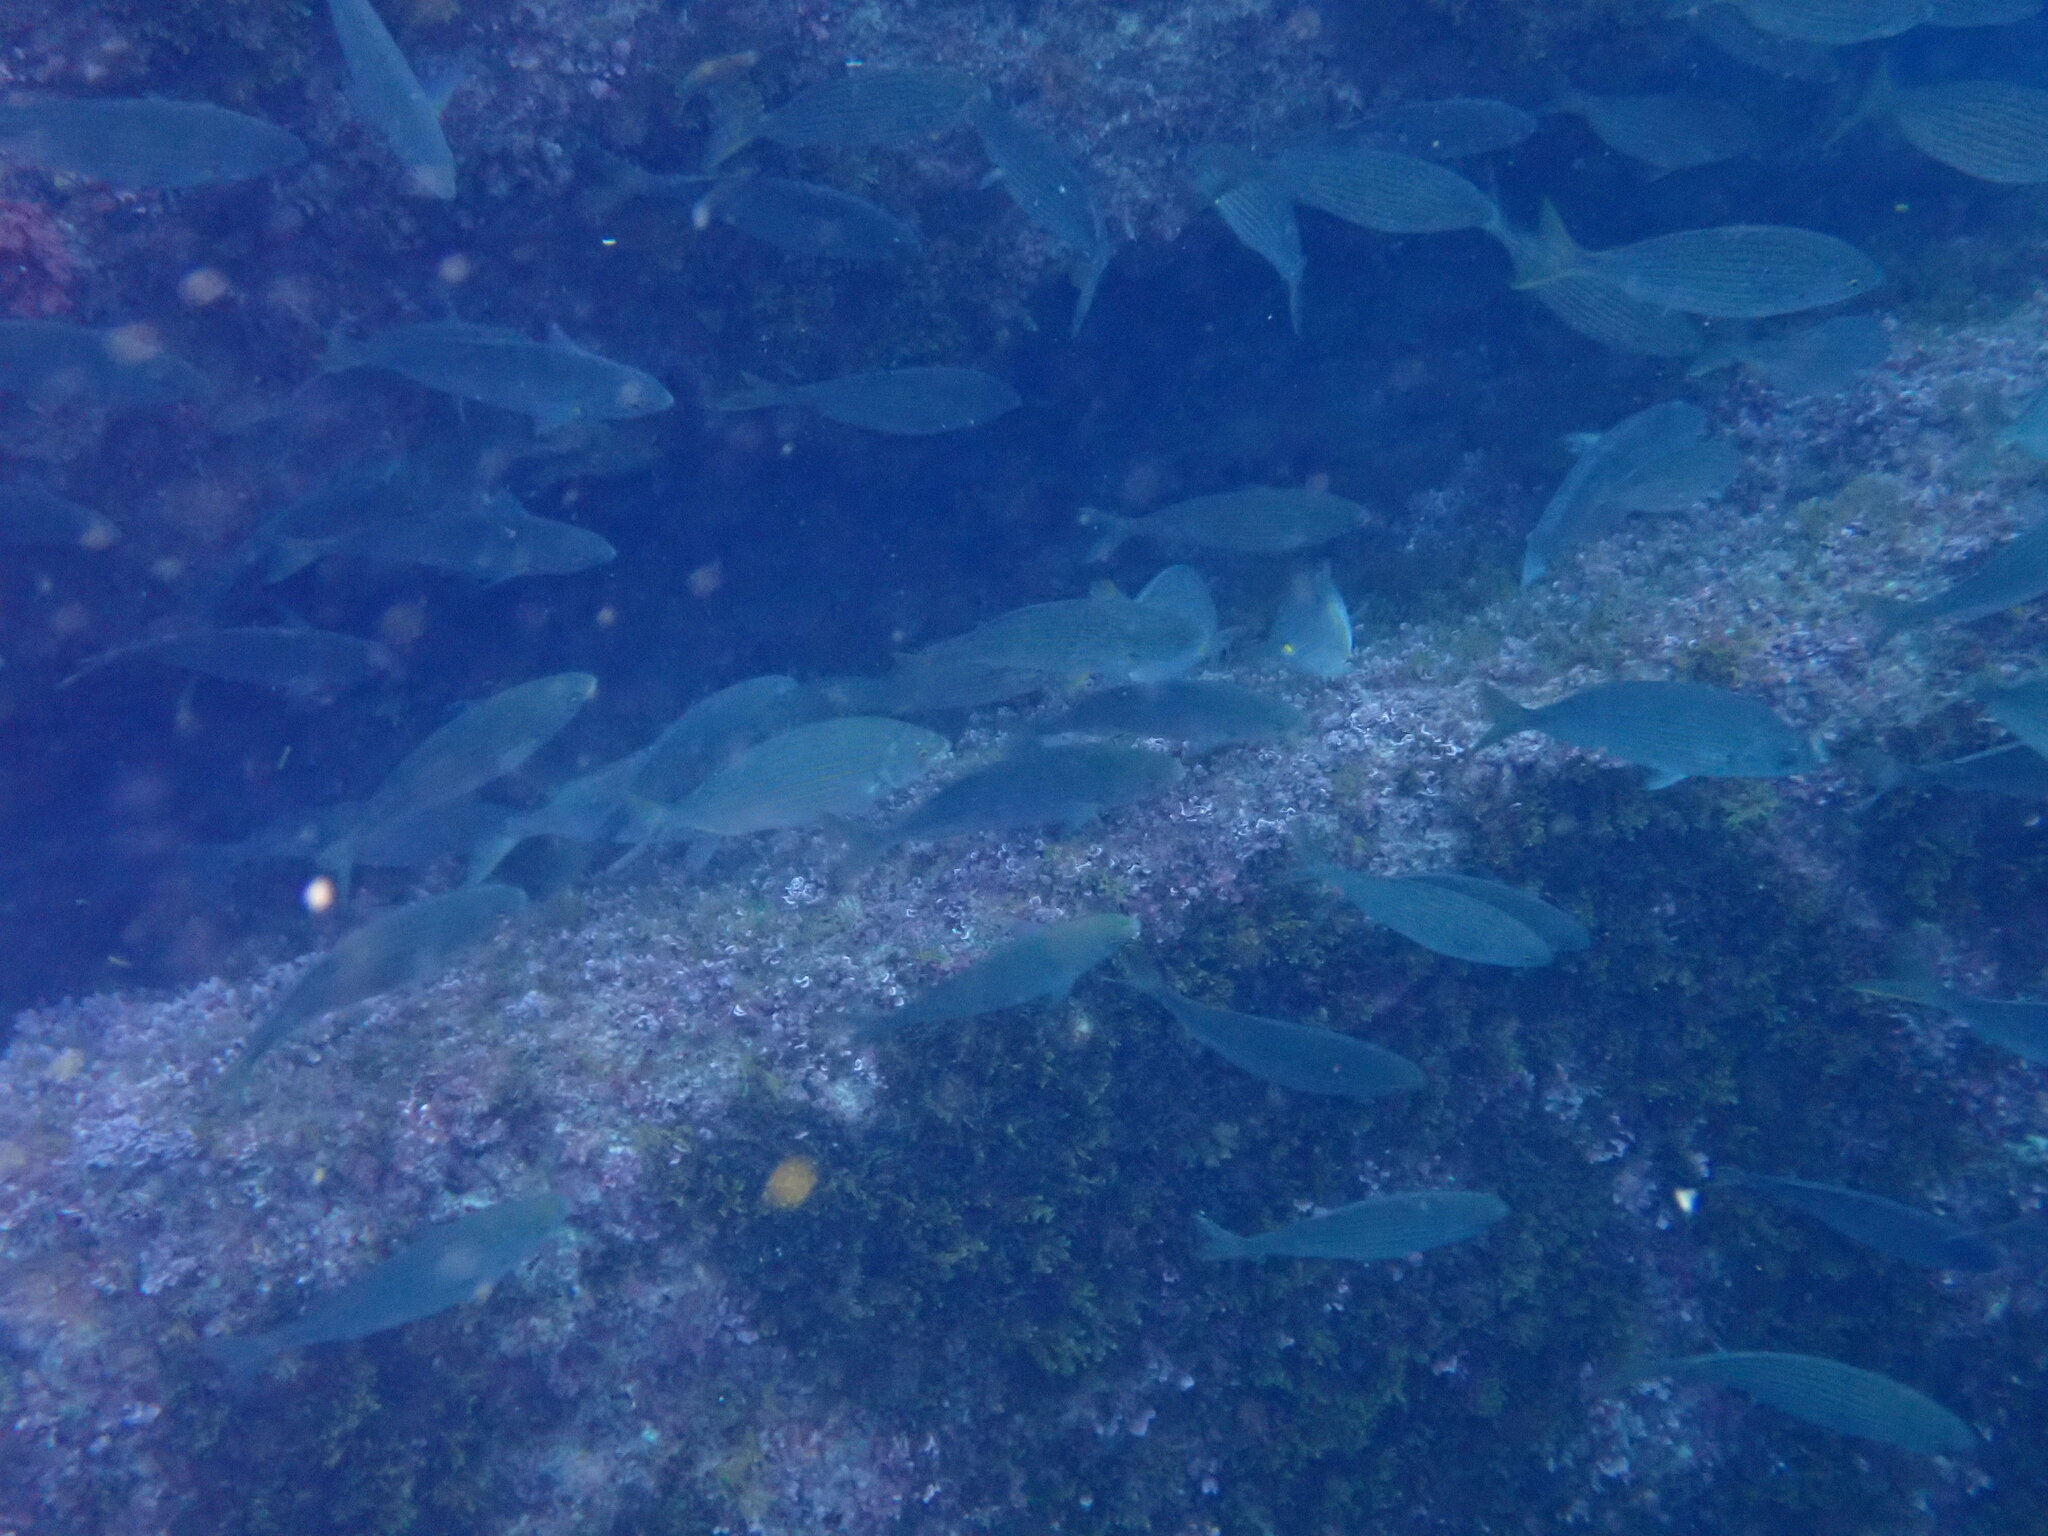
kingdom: Animalia
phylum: Chordata
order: Perciformes
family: Sparidae
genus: Sarpa
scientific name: Sarpa salpa
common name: Salema
